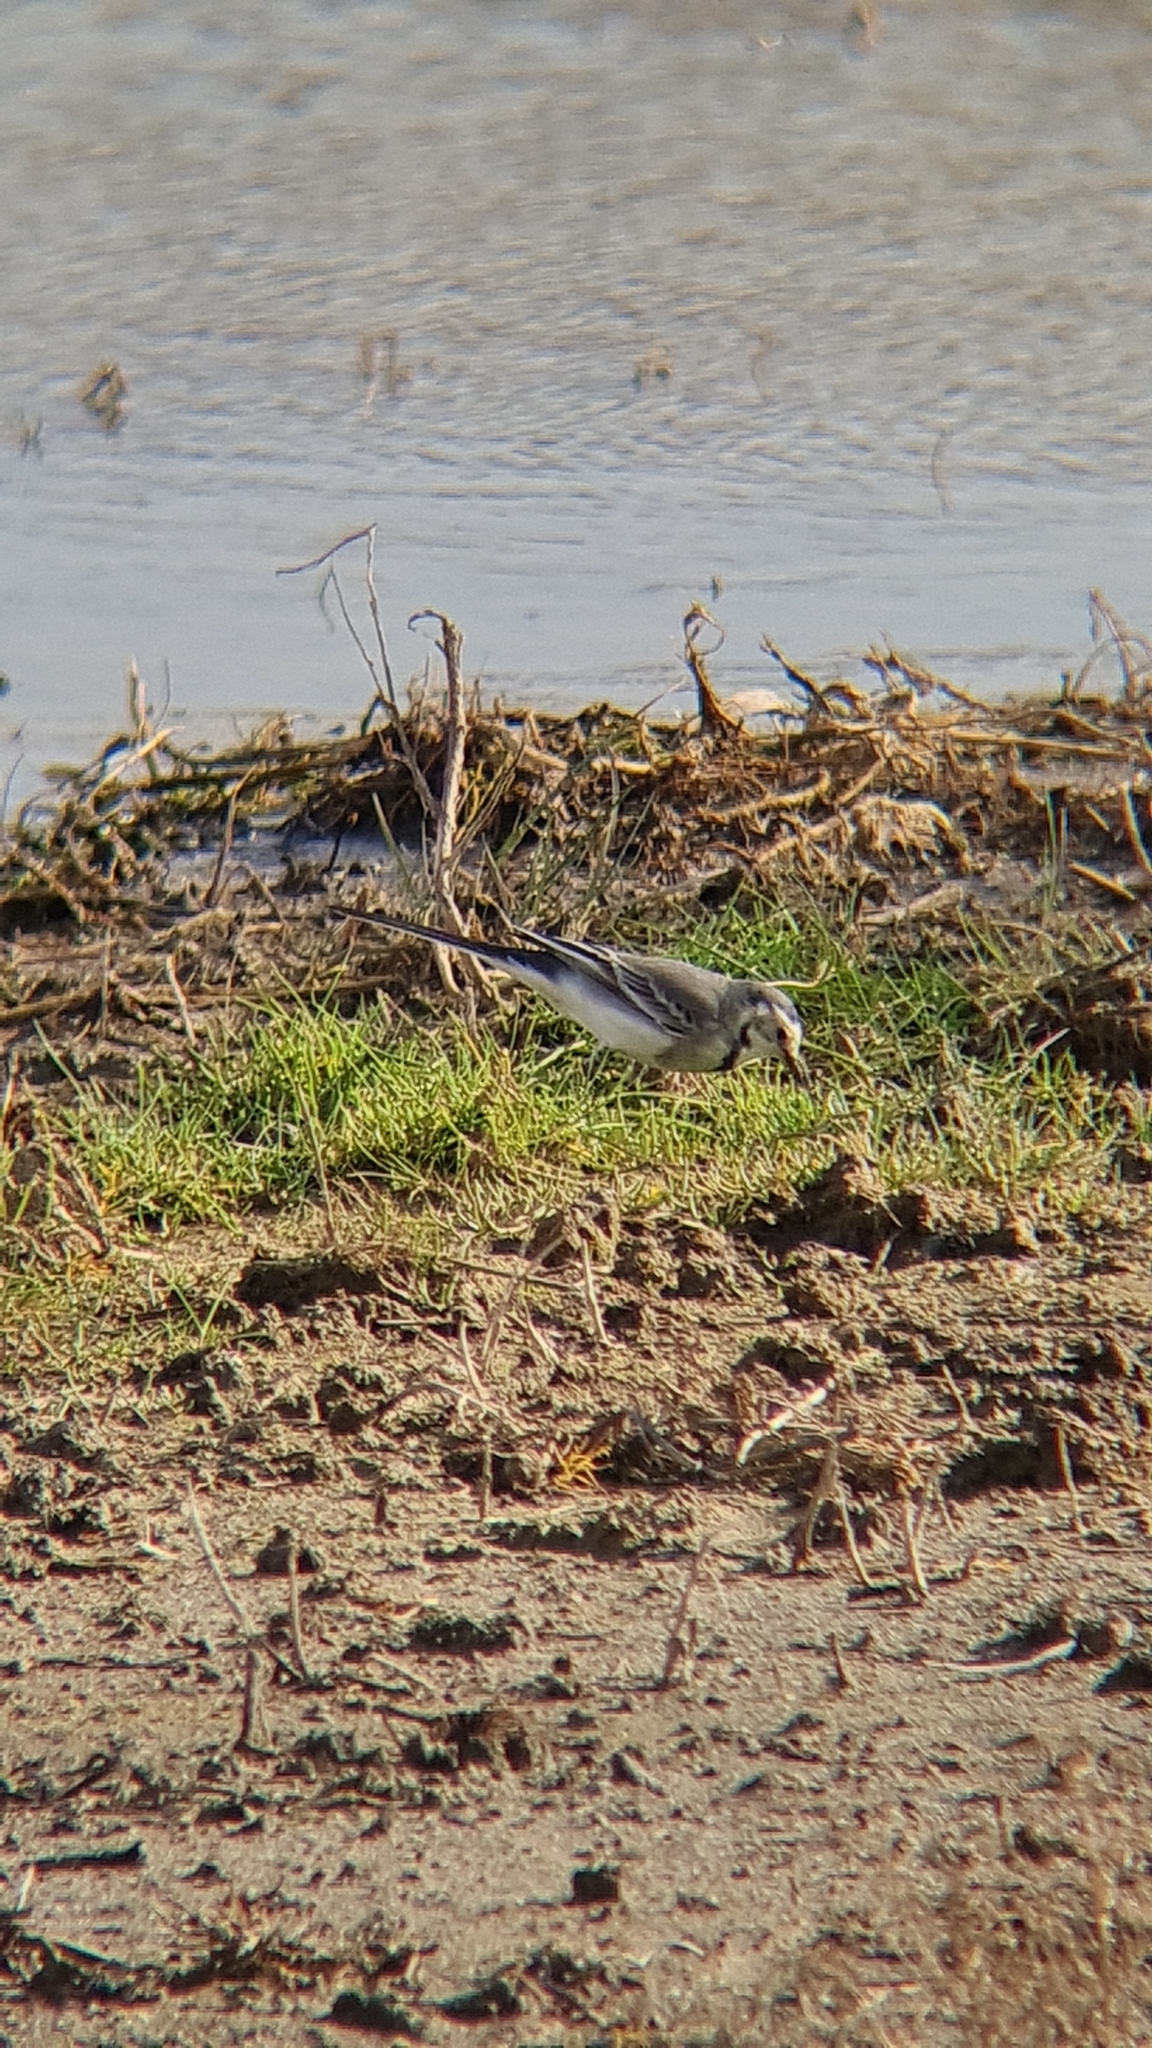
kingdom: Animalia
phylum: Chordata
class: Aves
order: Passeriformes
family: Motacillidae
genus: Motacilla
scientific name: Motacilla alba
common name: White wagtail
